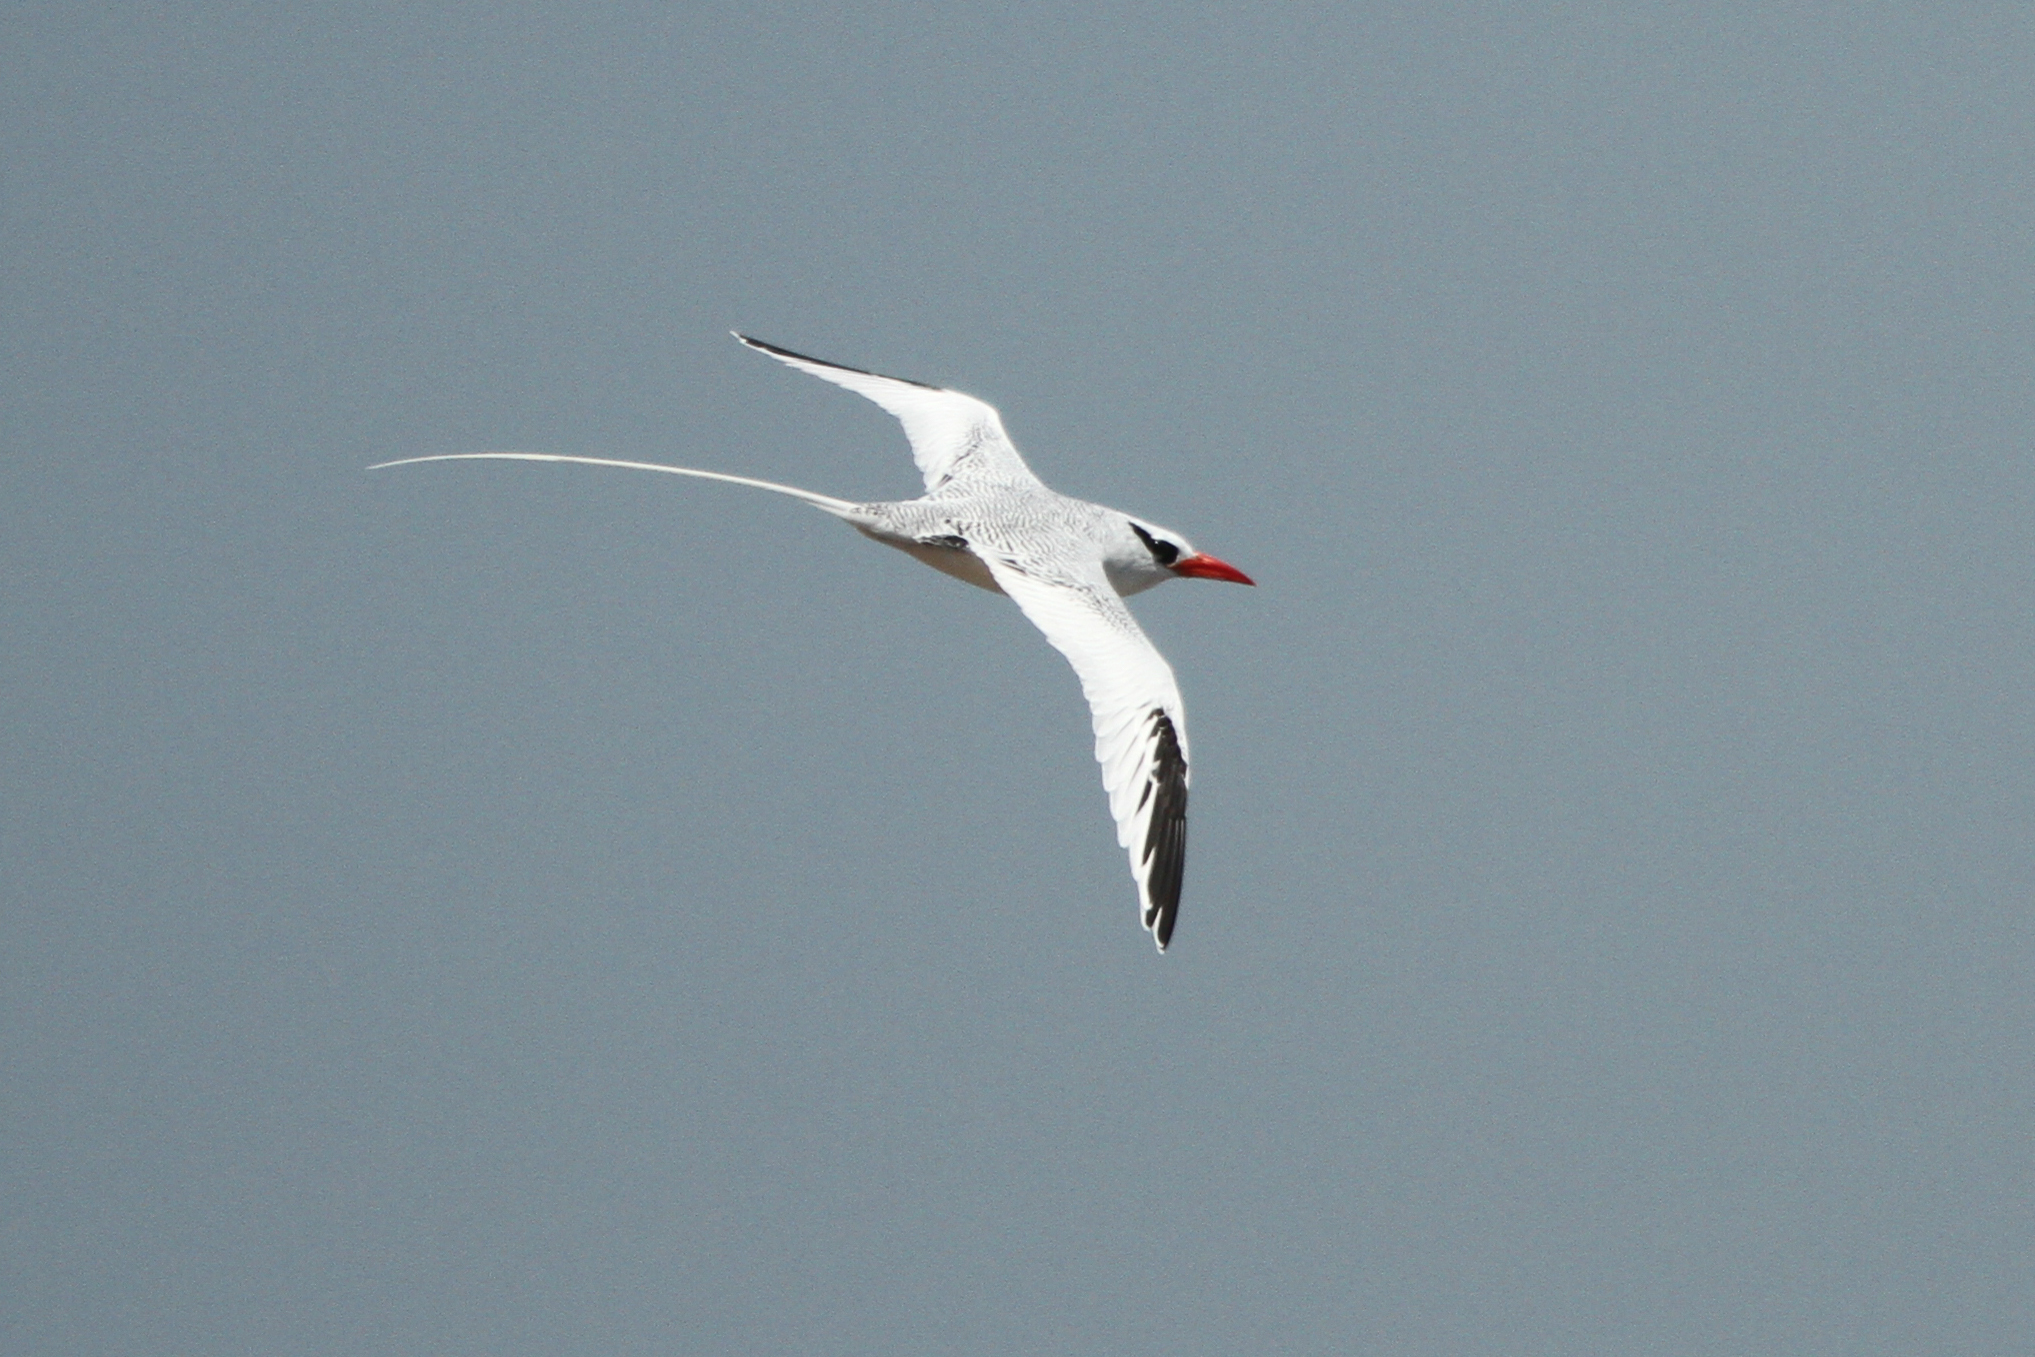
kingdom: Animalia
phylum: Chordata
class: Aves
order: Phaethontiformes
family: Phaethontidae
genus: Phaethon
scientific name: Phaethon aethereus
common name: Red-billed tropicbird
